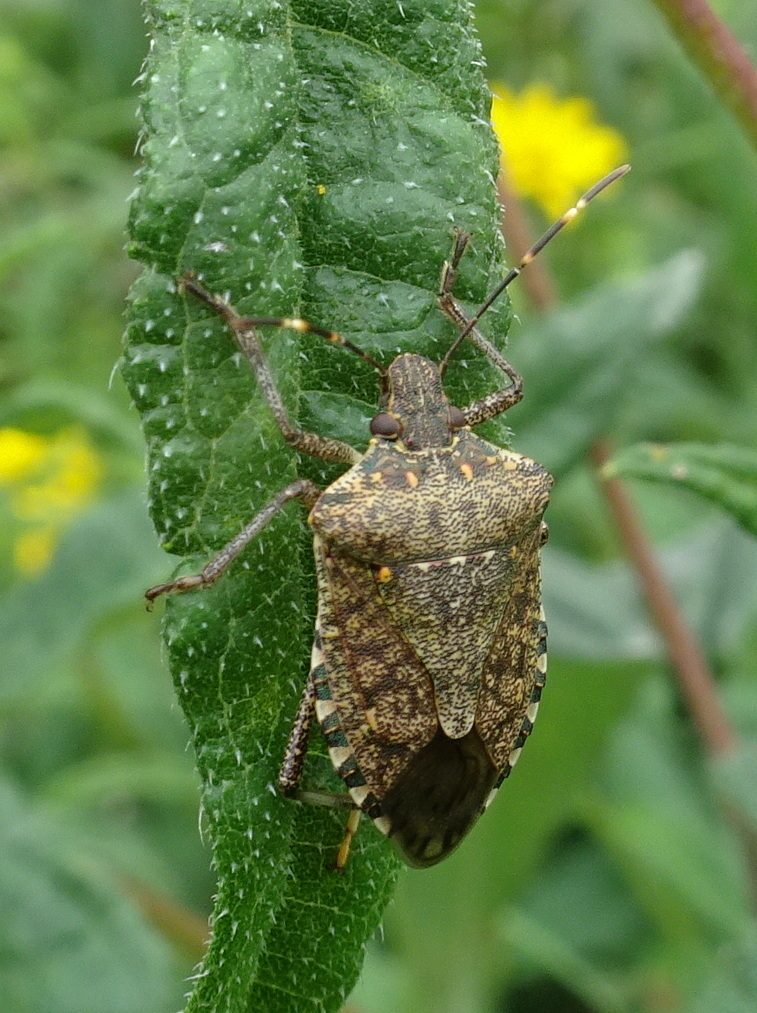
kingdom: Animalia
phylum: Arthropoda
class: Insecta
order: Hemiptera
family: Pentatomidae
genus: Halyomorpha
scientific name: Halyomorpha halys
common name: Brown marmorated stink bug
